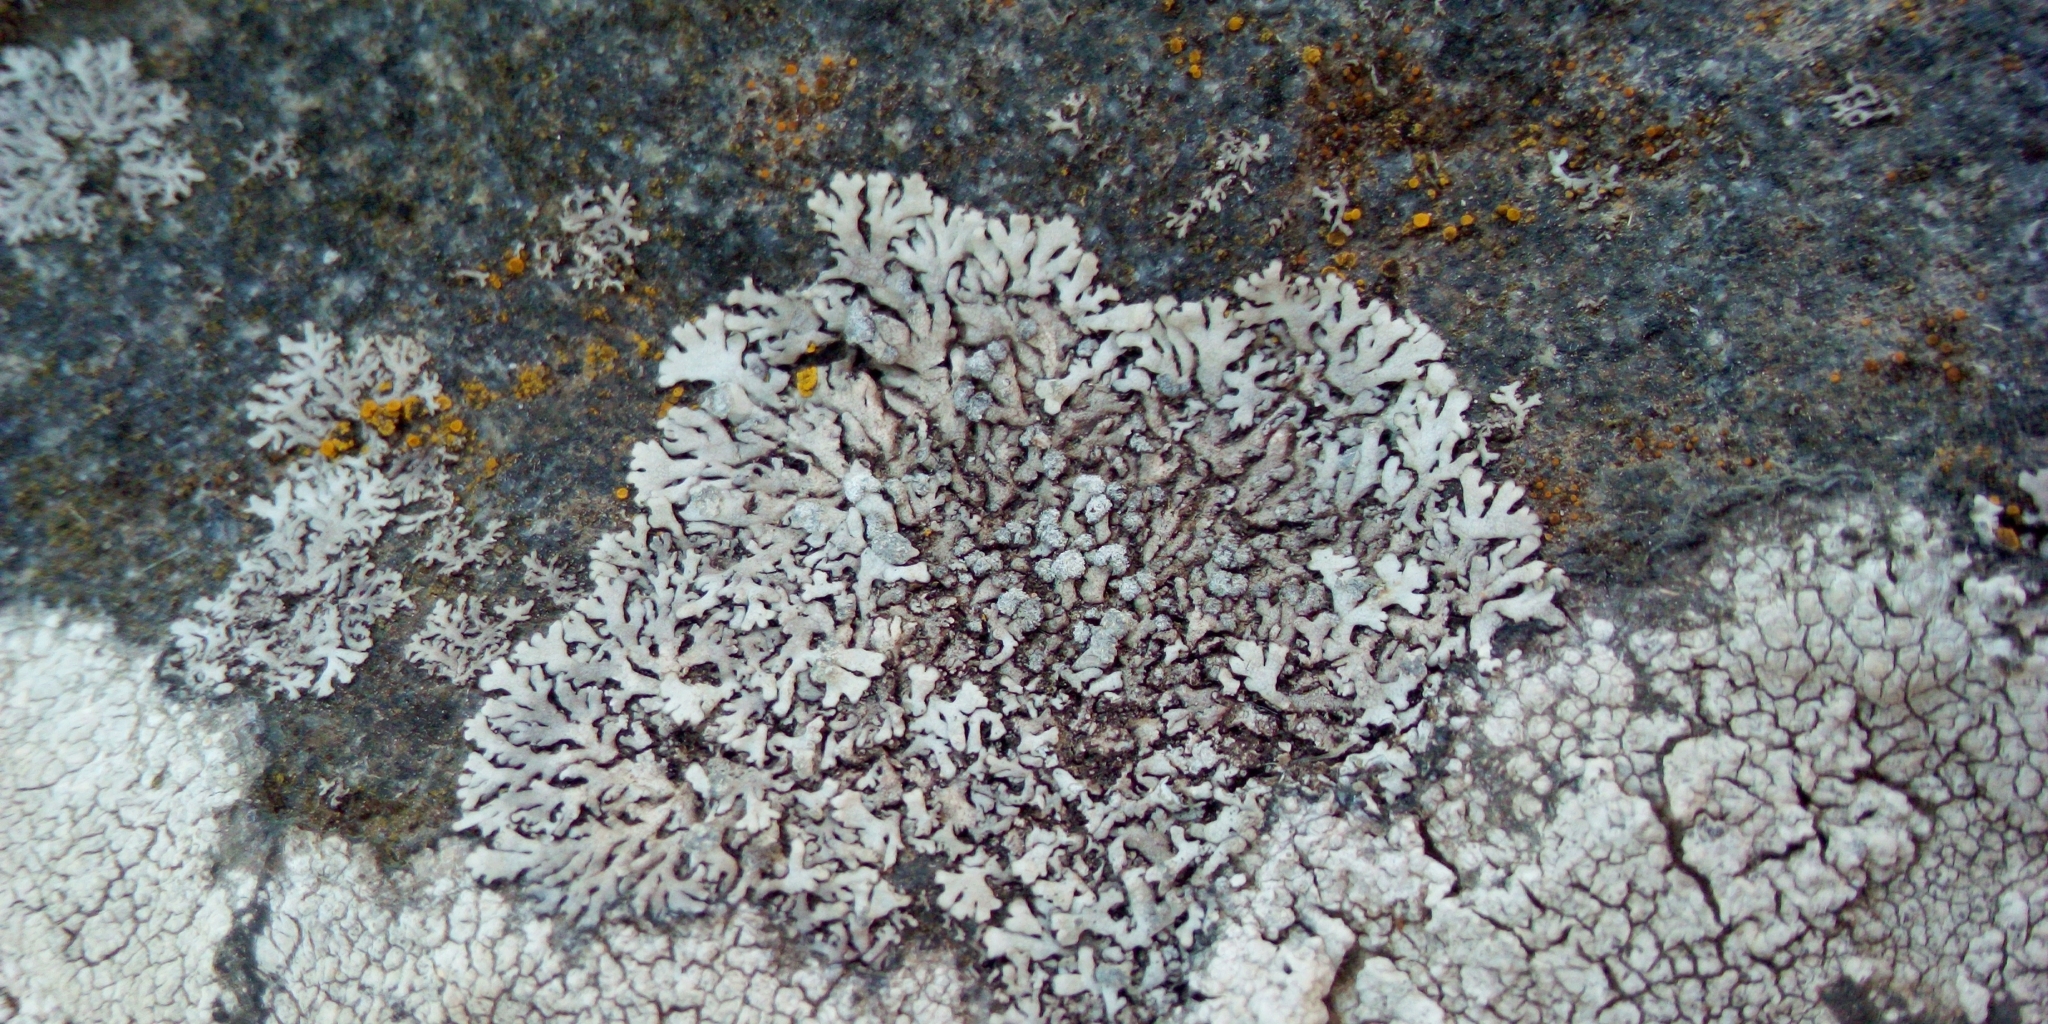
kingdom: Fungi
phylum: Ascomycota
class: Lecanoromycetes
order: Caliciales
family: Physciaceae
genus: Physcia
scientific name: Physcia caesia
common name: Blue-gray rosette lichen
